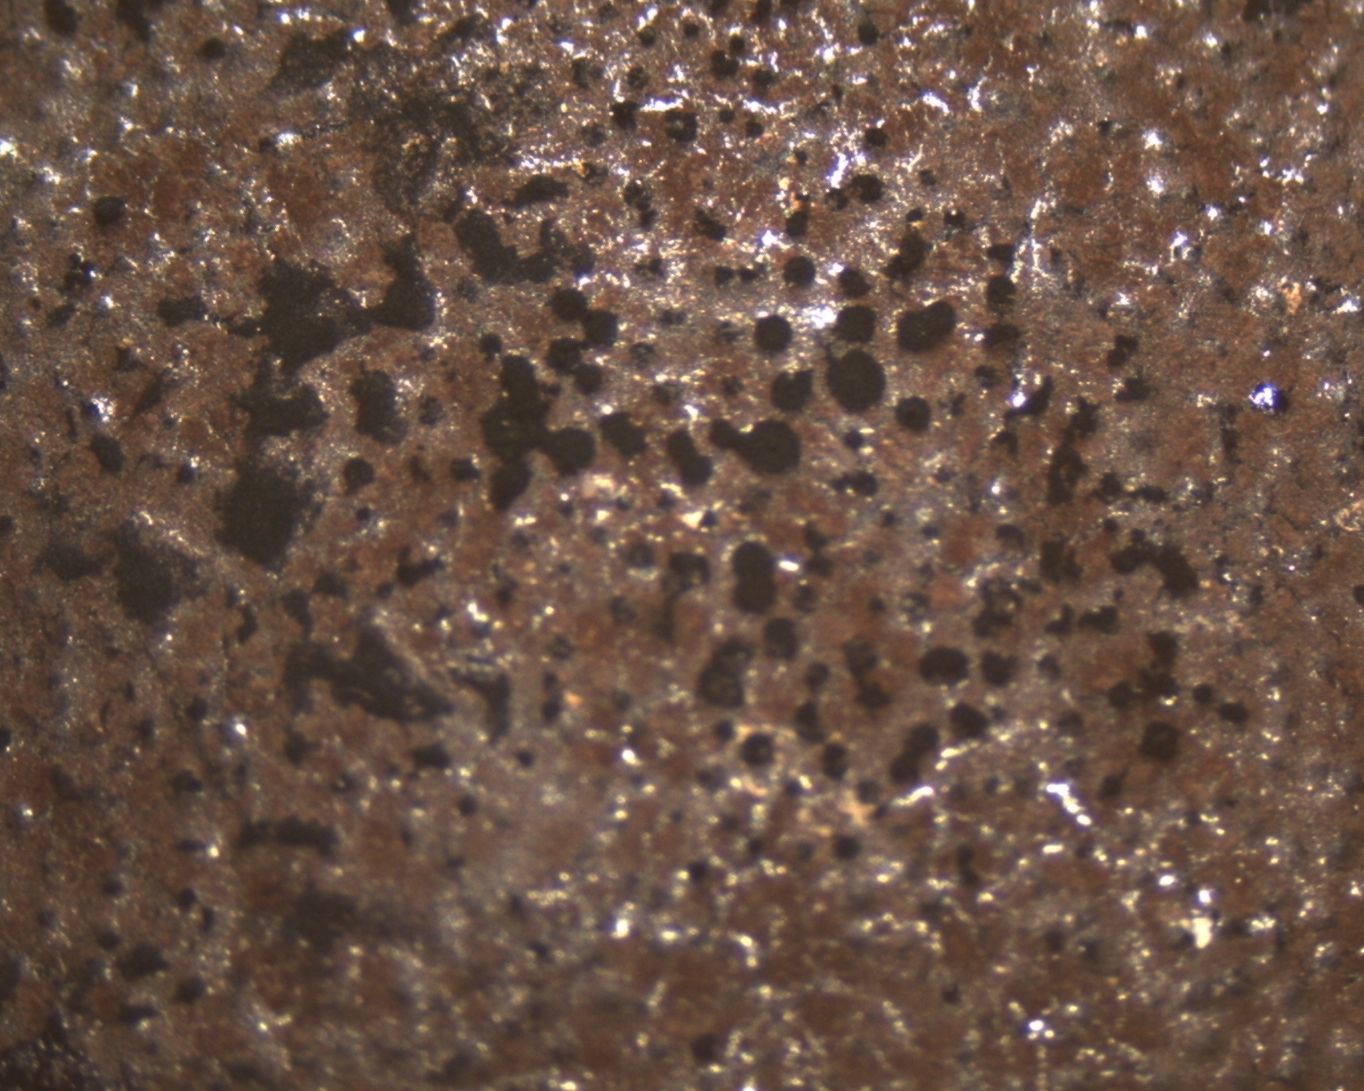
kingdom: Fungi
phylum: Ascomycota
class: Sordariomycetes
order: Xylariales
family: Hypoxylaceae
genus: Daldinia
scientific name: Daldinia dennisii
